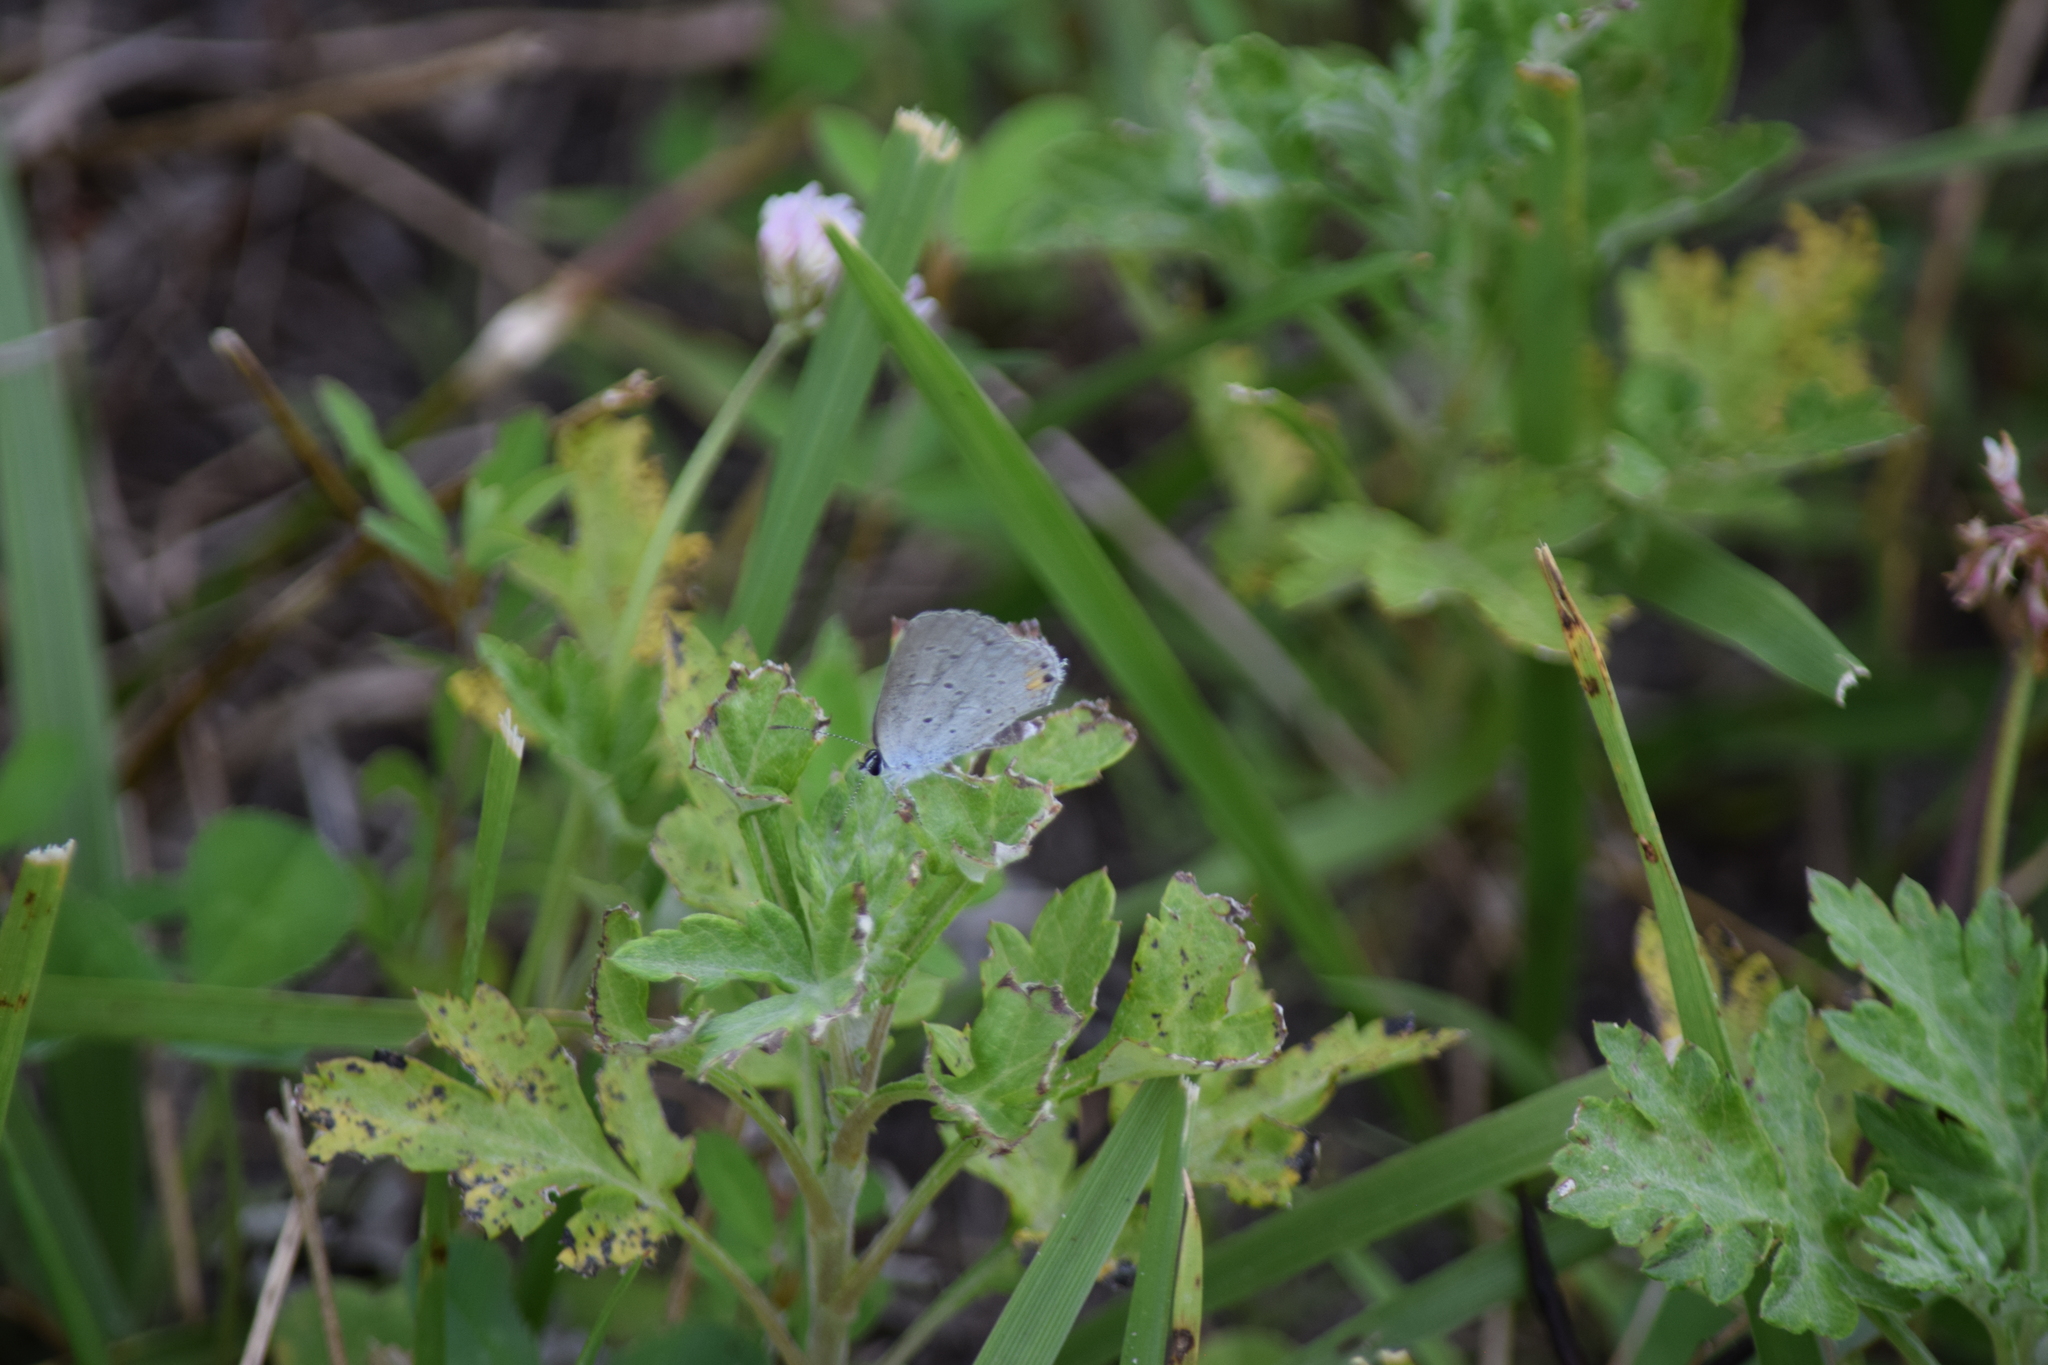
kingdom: Animalia
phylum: Arthropoda
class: Insecta
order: Lepidoptera
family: Lycaenidae
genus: Elkalyce
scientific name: Elkalyce comyntas
